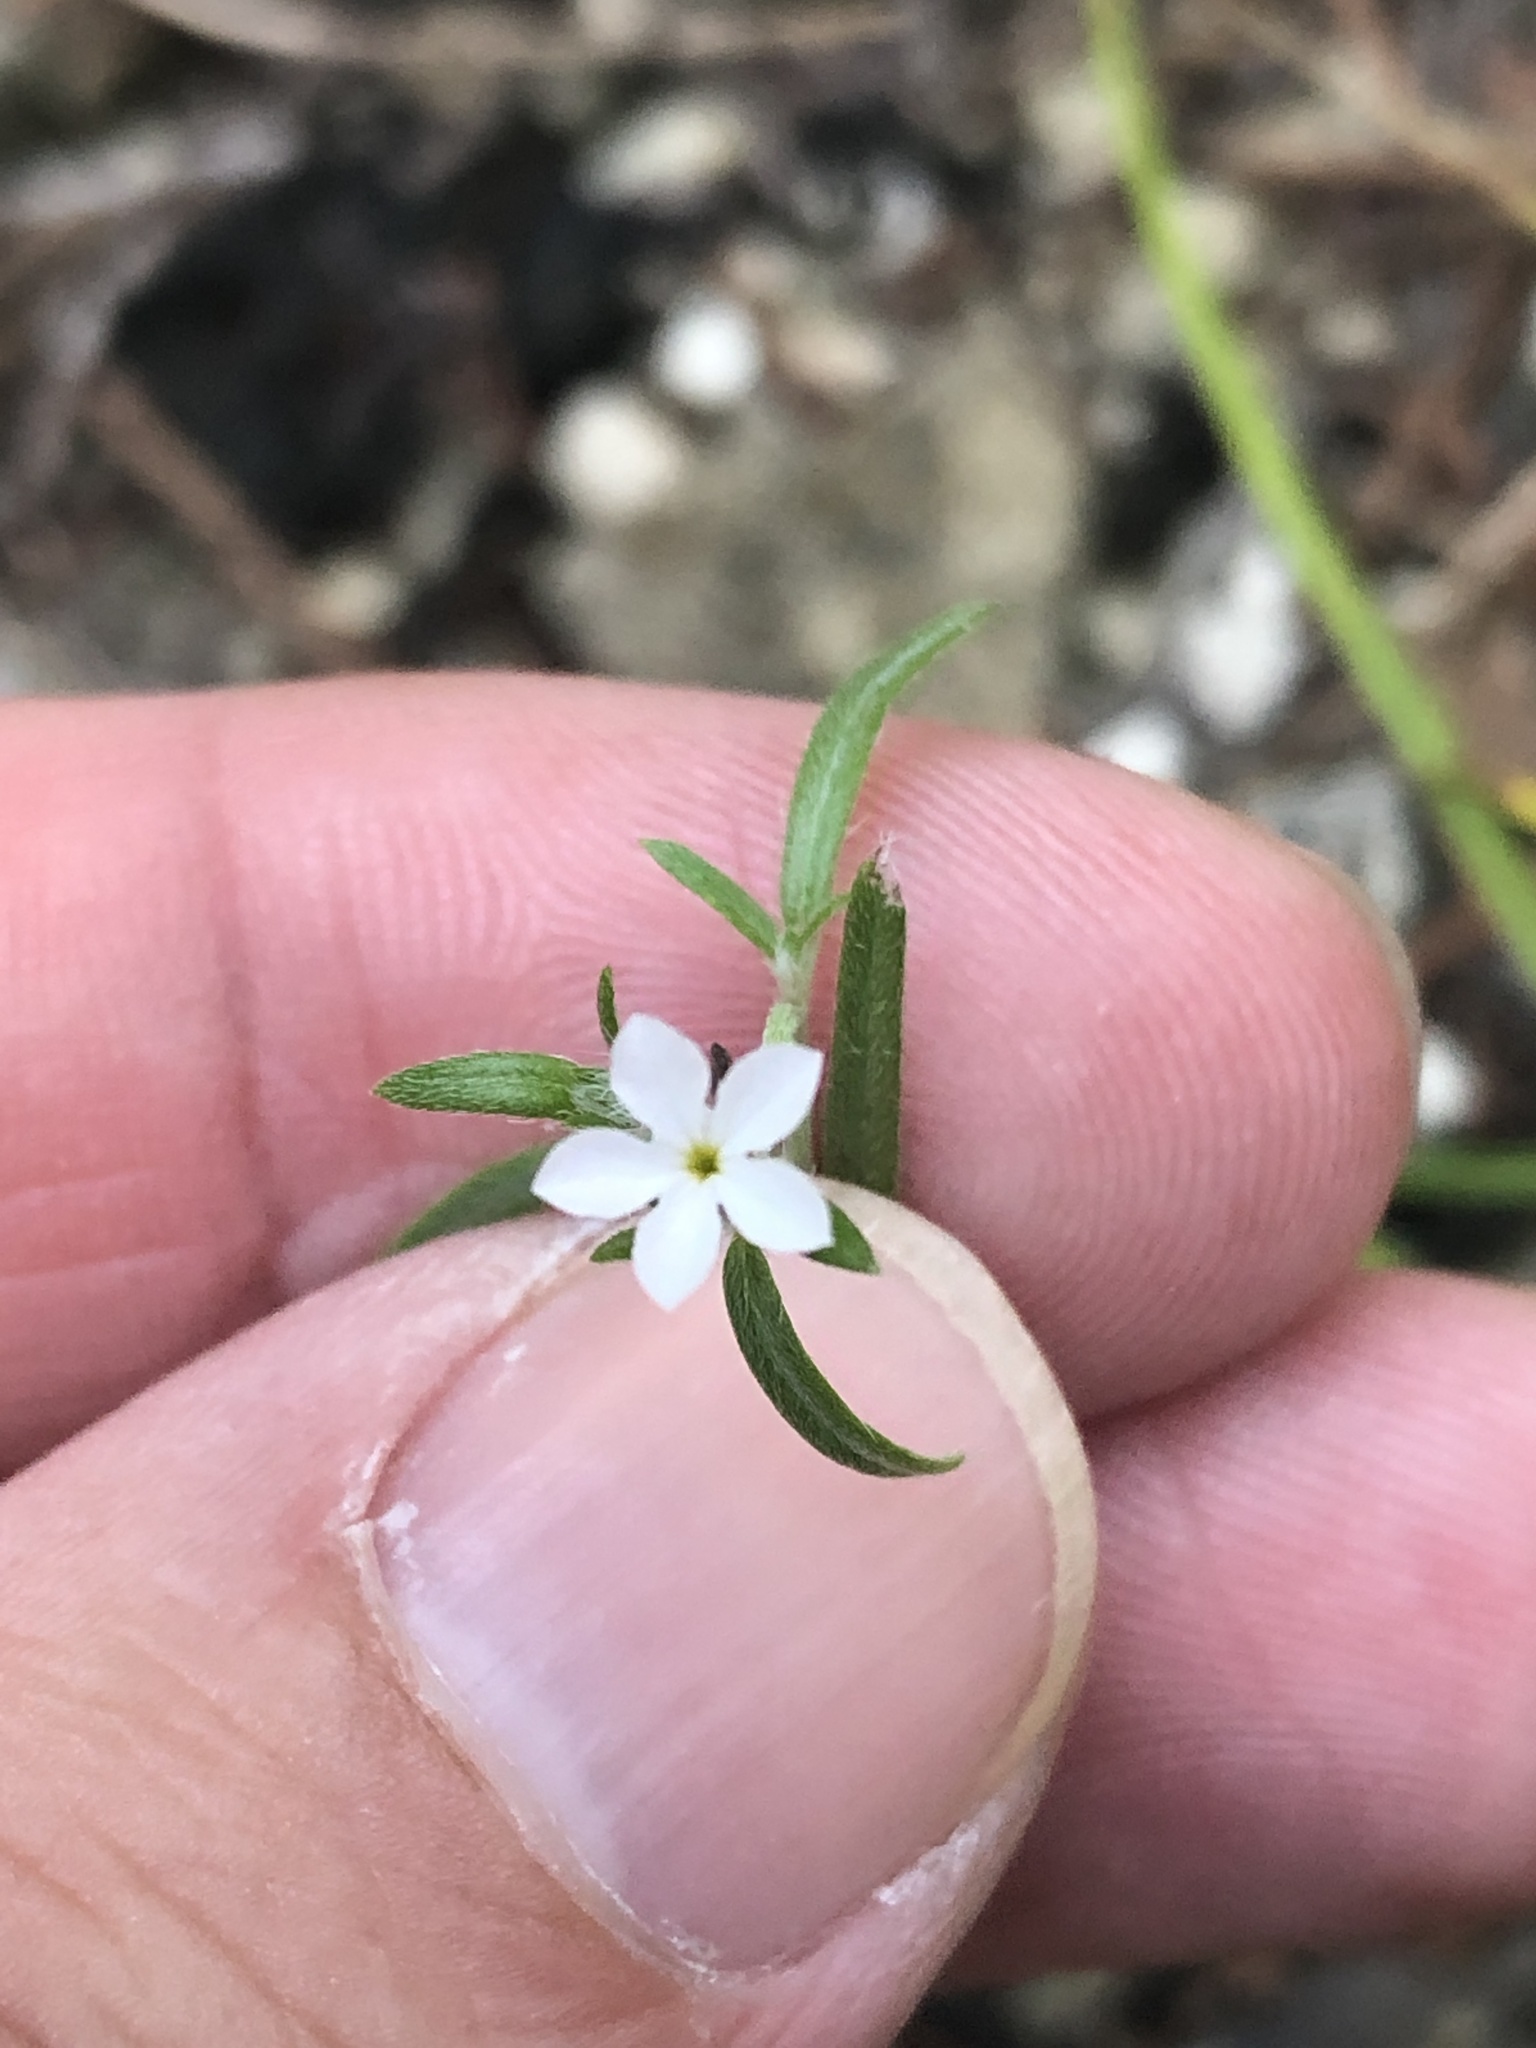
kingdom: Plantae
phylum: Tracheophyta
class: Magnoliopsida
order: Boraginales
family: Heliotropiaceae
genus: Euploca
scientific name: Euploca tenella
